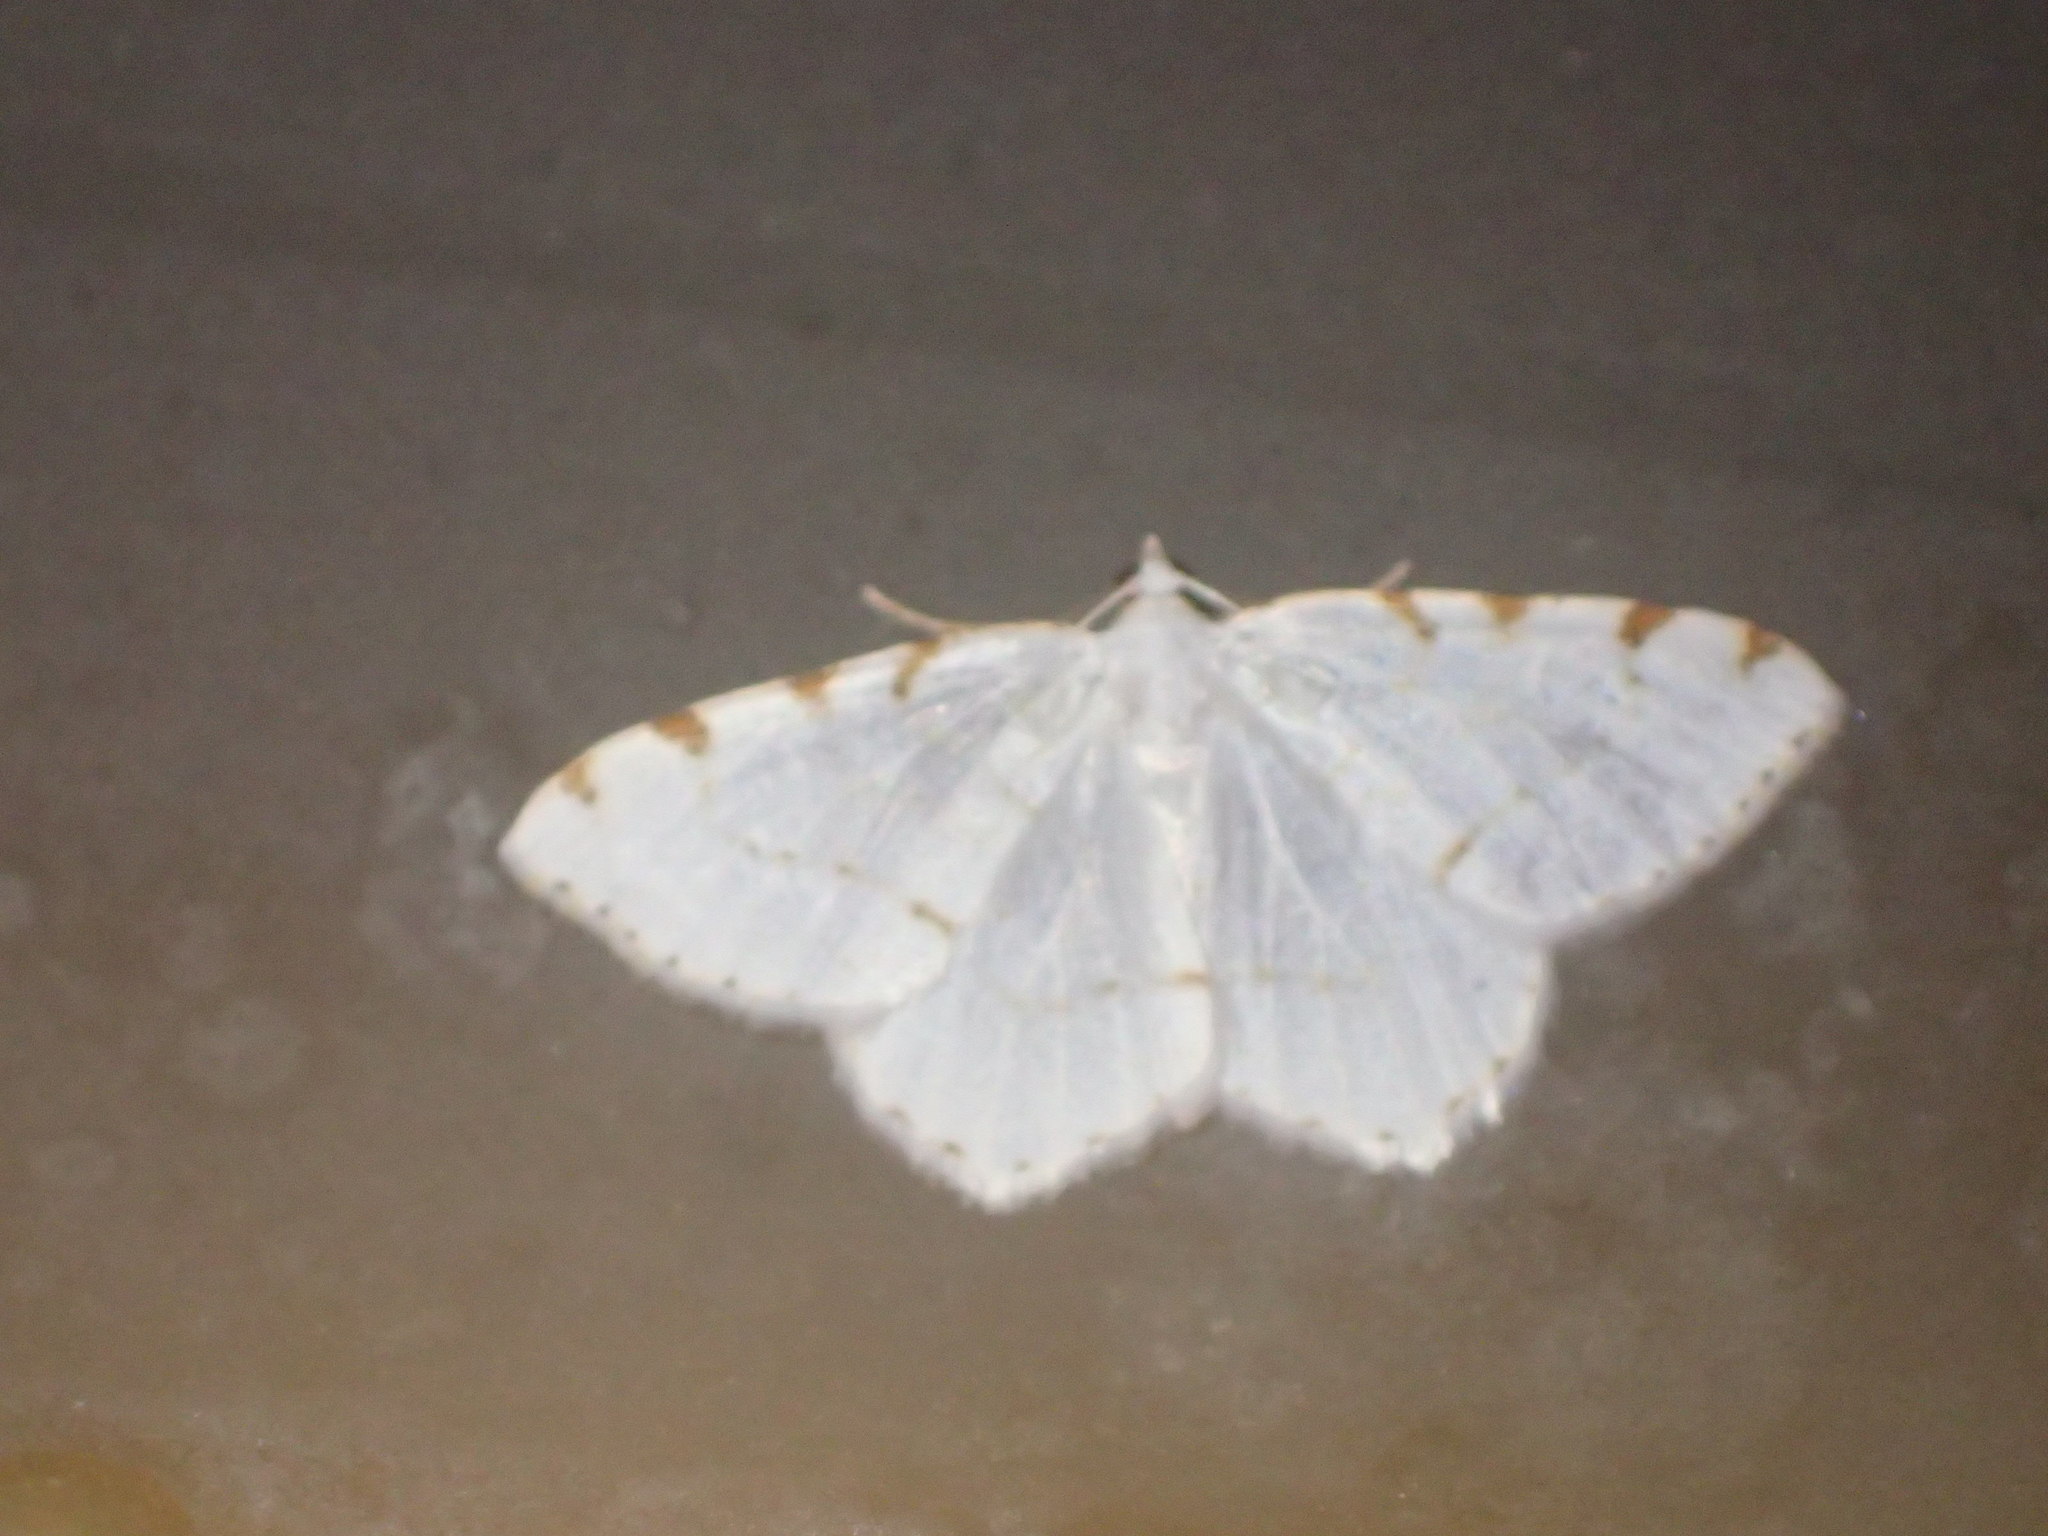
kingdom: Animalia
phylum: Arthropoda
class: Insecta
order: Lepidoptera
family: Geometridae
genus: Macaria
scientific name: Macaria pustularia
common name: Lesser maple spanworm moth
